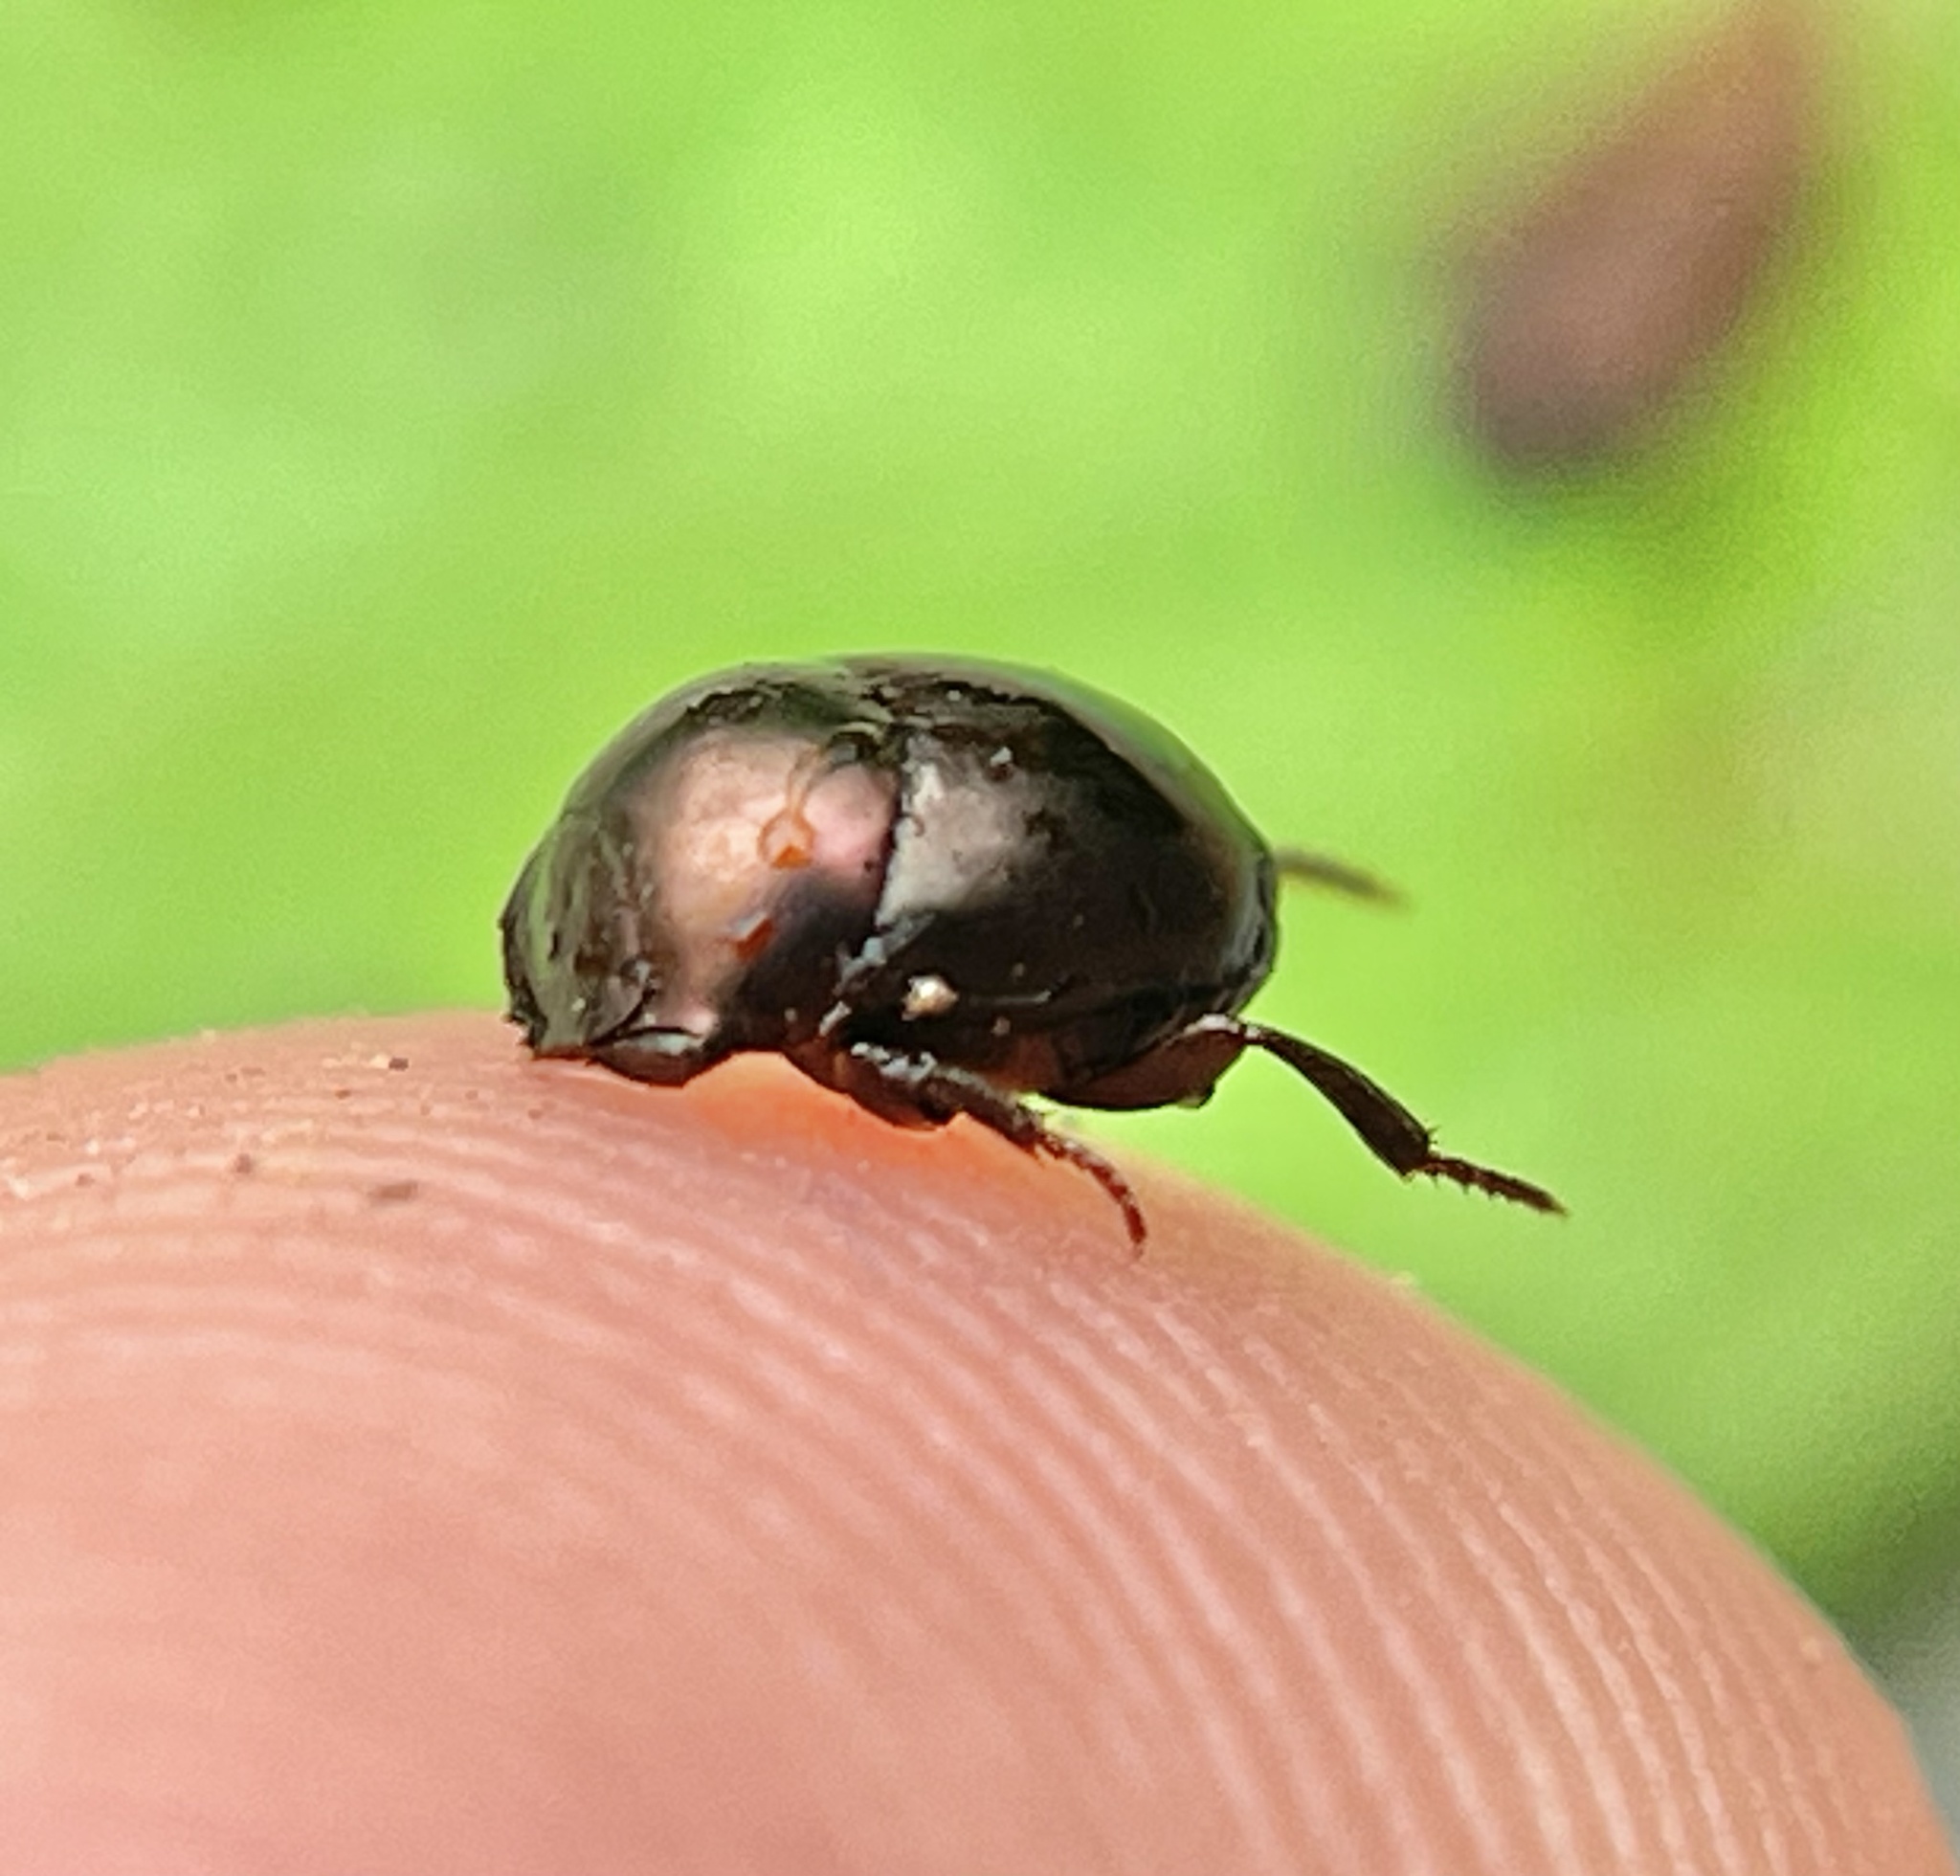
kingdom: Animalia
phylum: Arthropoda
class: Insecta
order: Coleoptera
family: Scarabaeidae
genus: Canthon
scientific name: Canthon viridis
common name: Tumblebug
